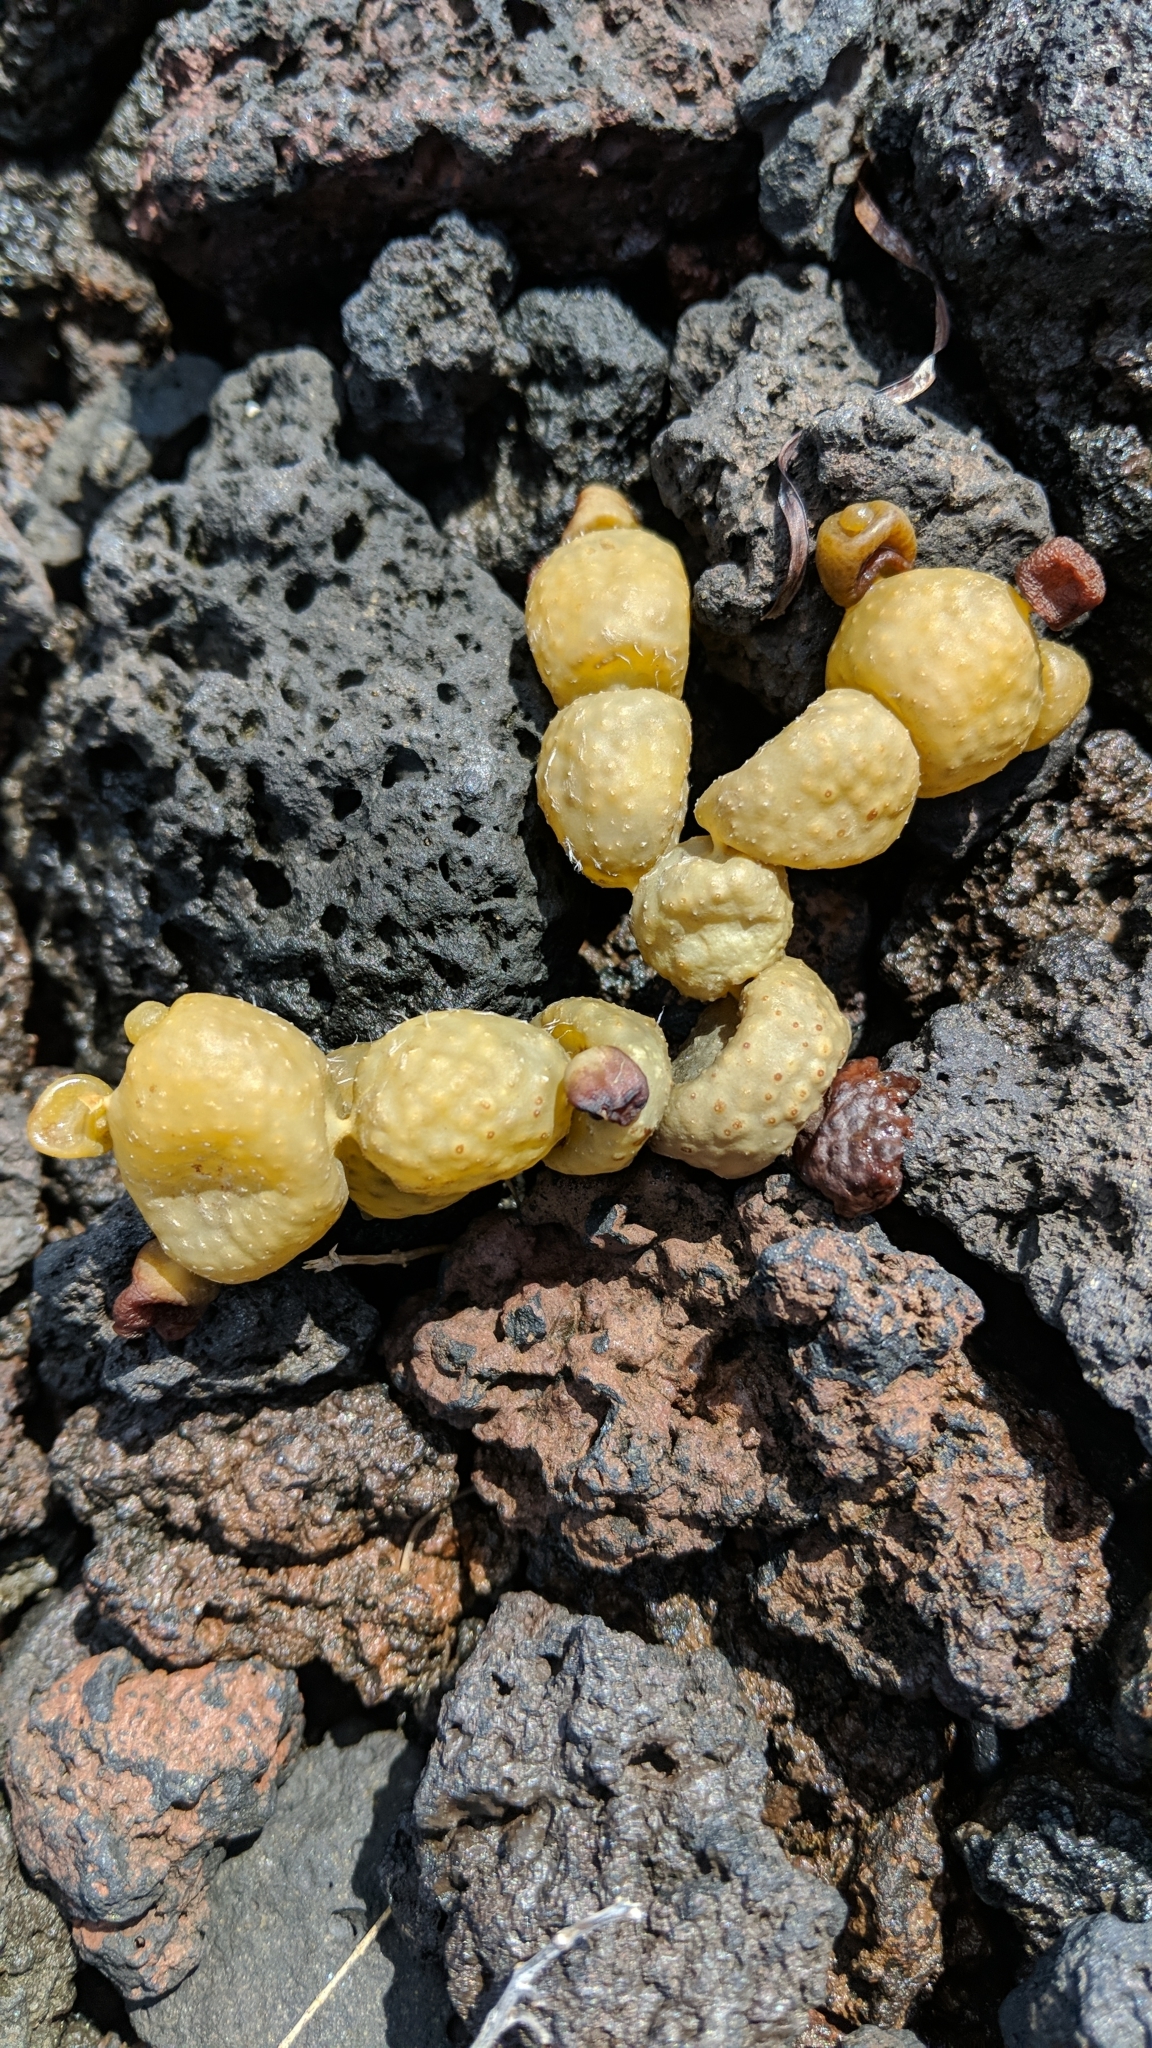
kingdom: Chromista
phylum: Ochrophyta
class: Phaeophyceae
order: Fucales
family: Hormosiraceae
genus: Hormosira
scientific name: Hormosira banksii
